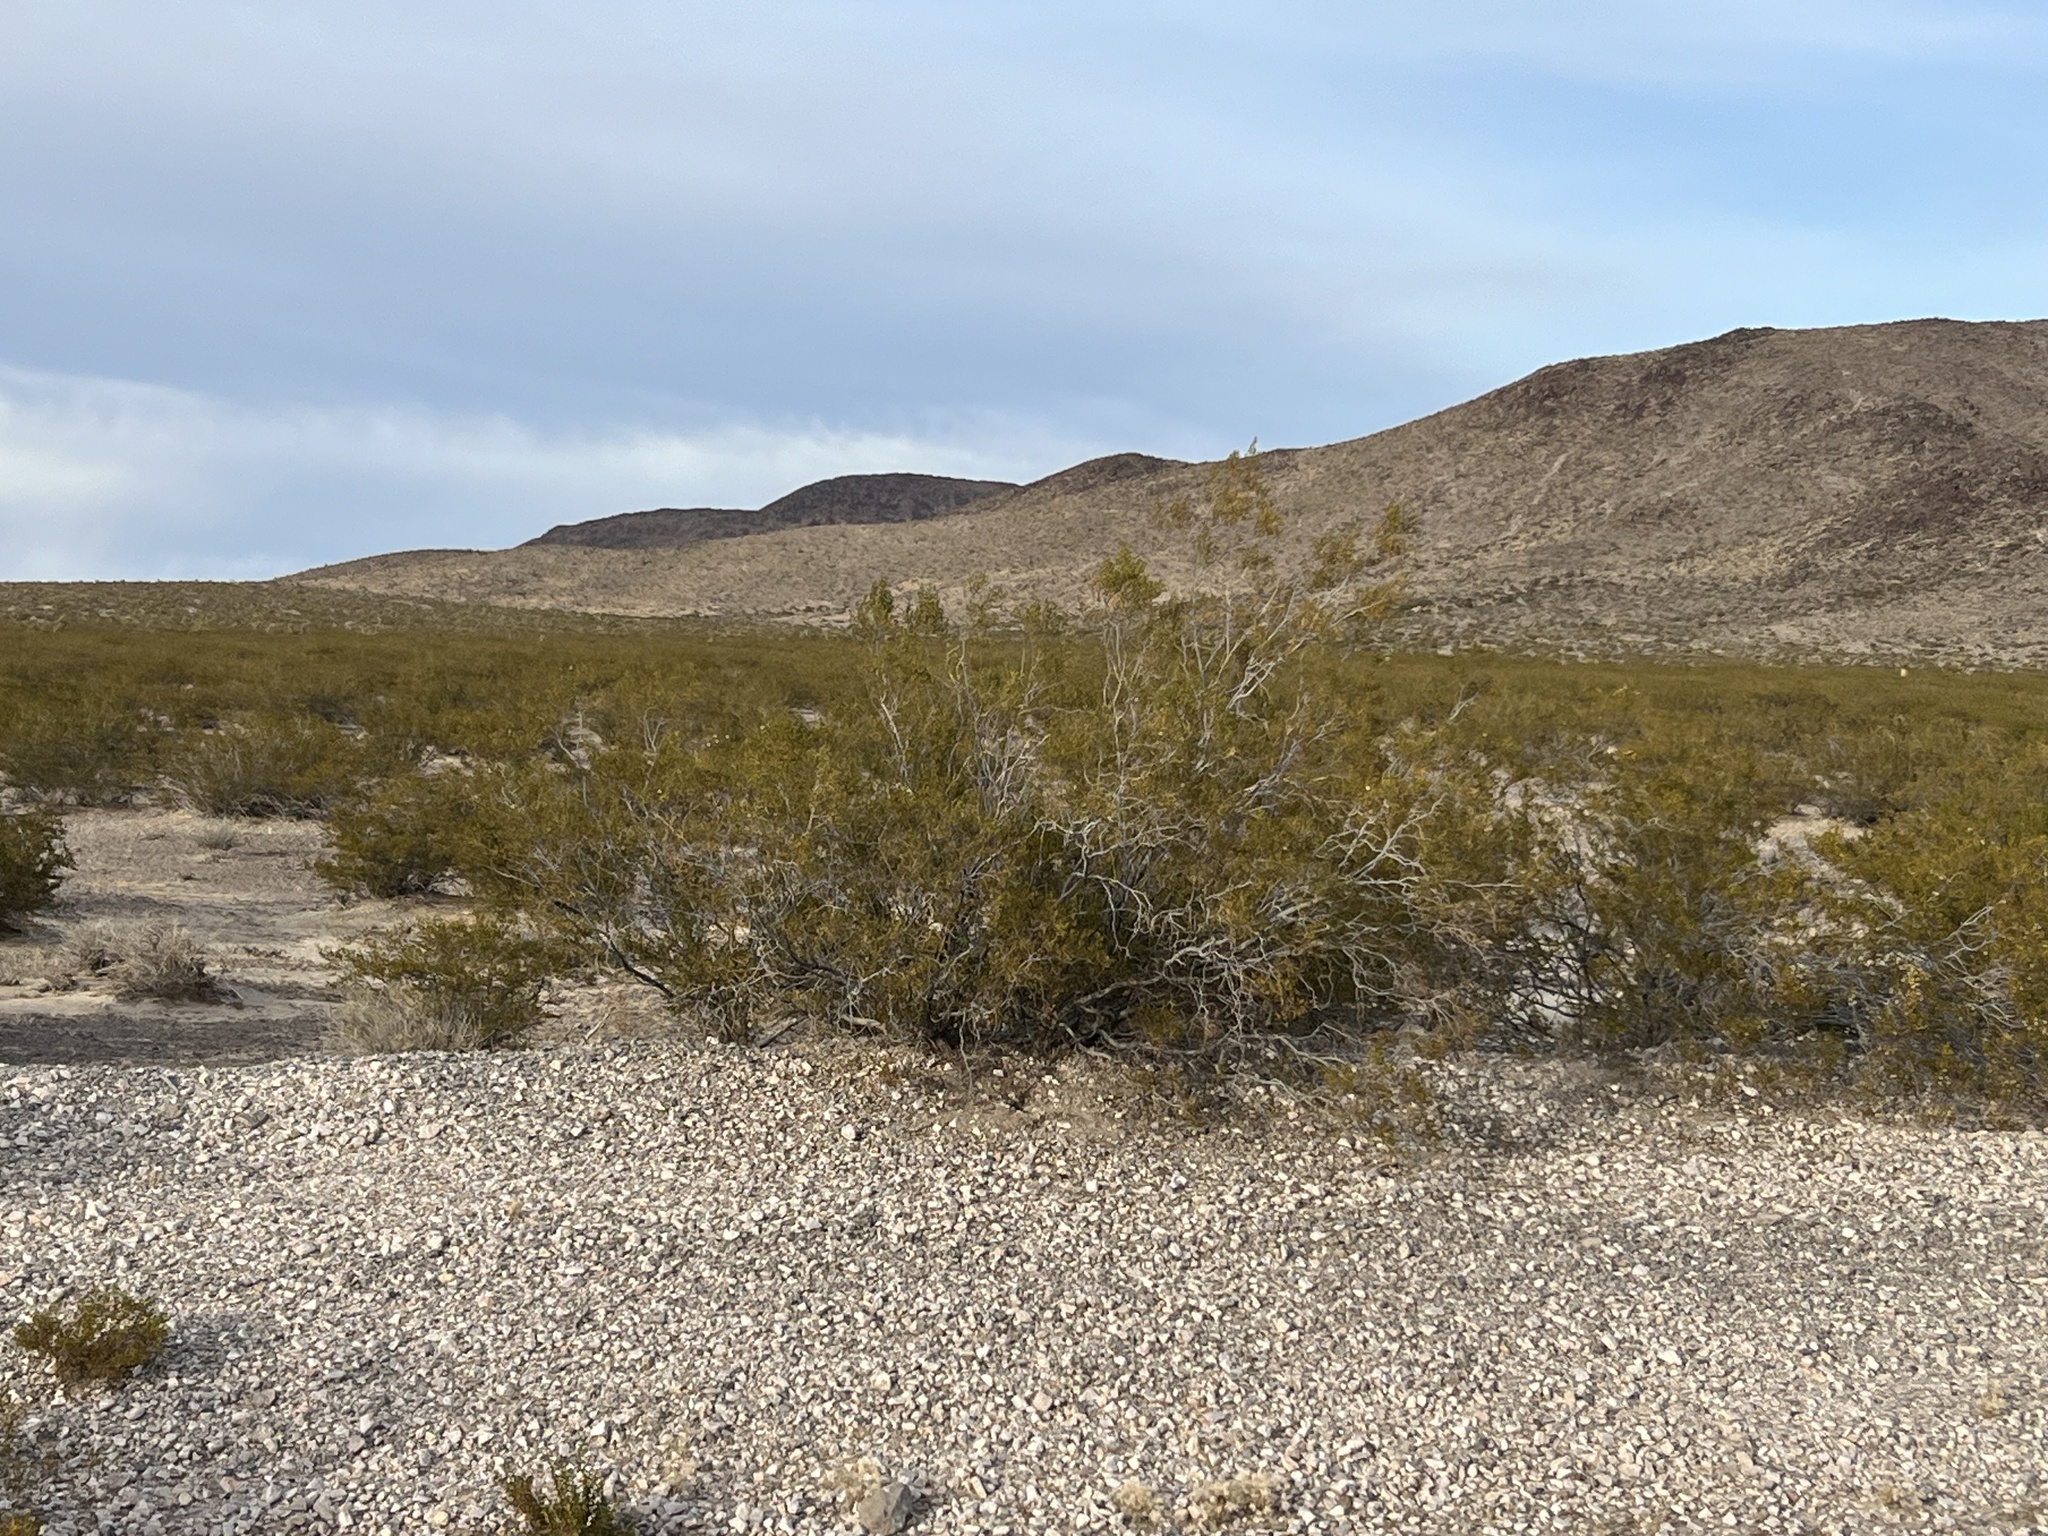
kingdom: Plantae
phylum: Tracheophyta
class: Magnoliopsida
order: Zygophyllales
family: Zygophyllaceae
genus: Larrea
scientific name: Larrea tridentata
